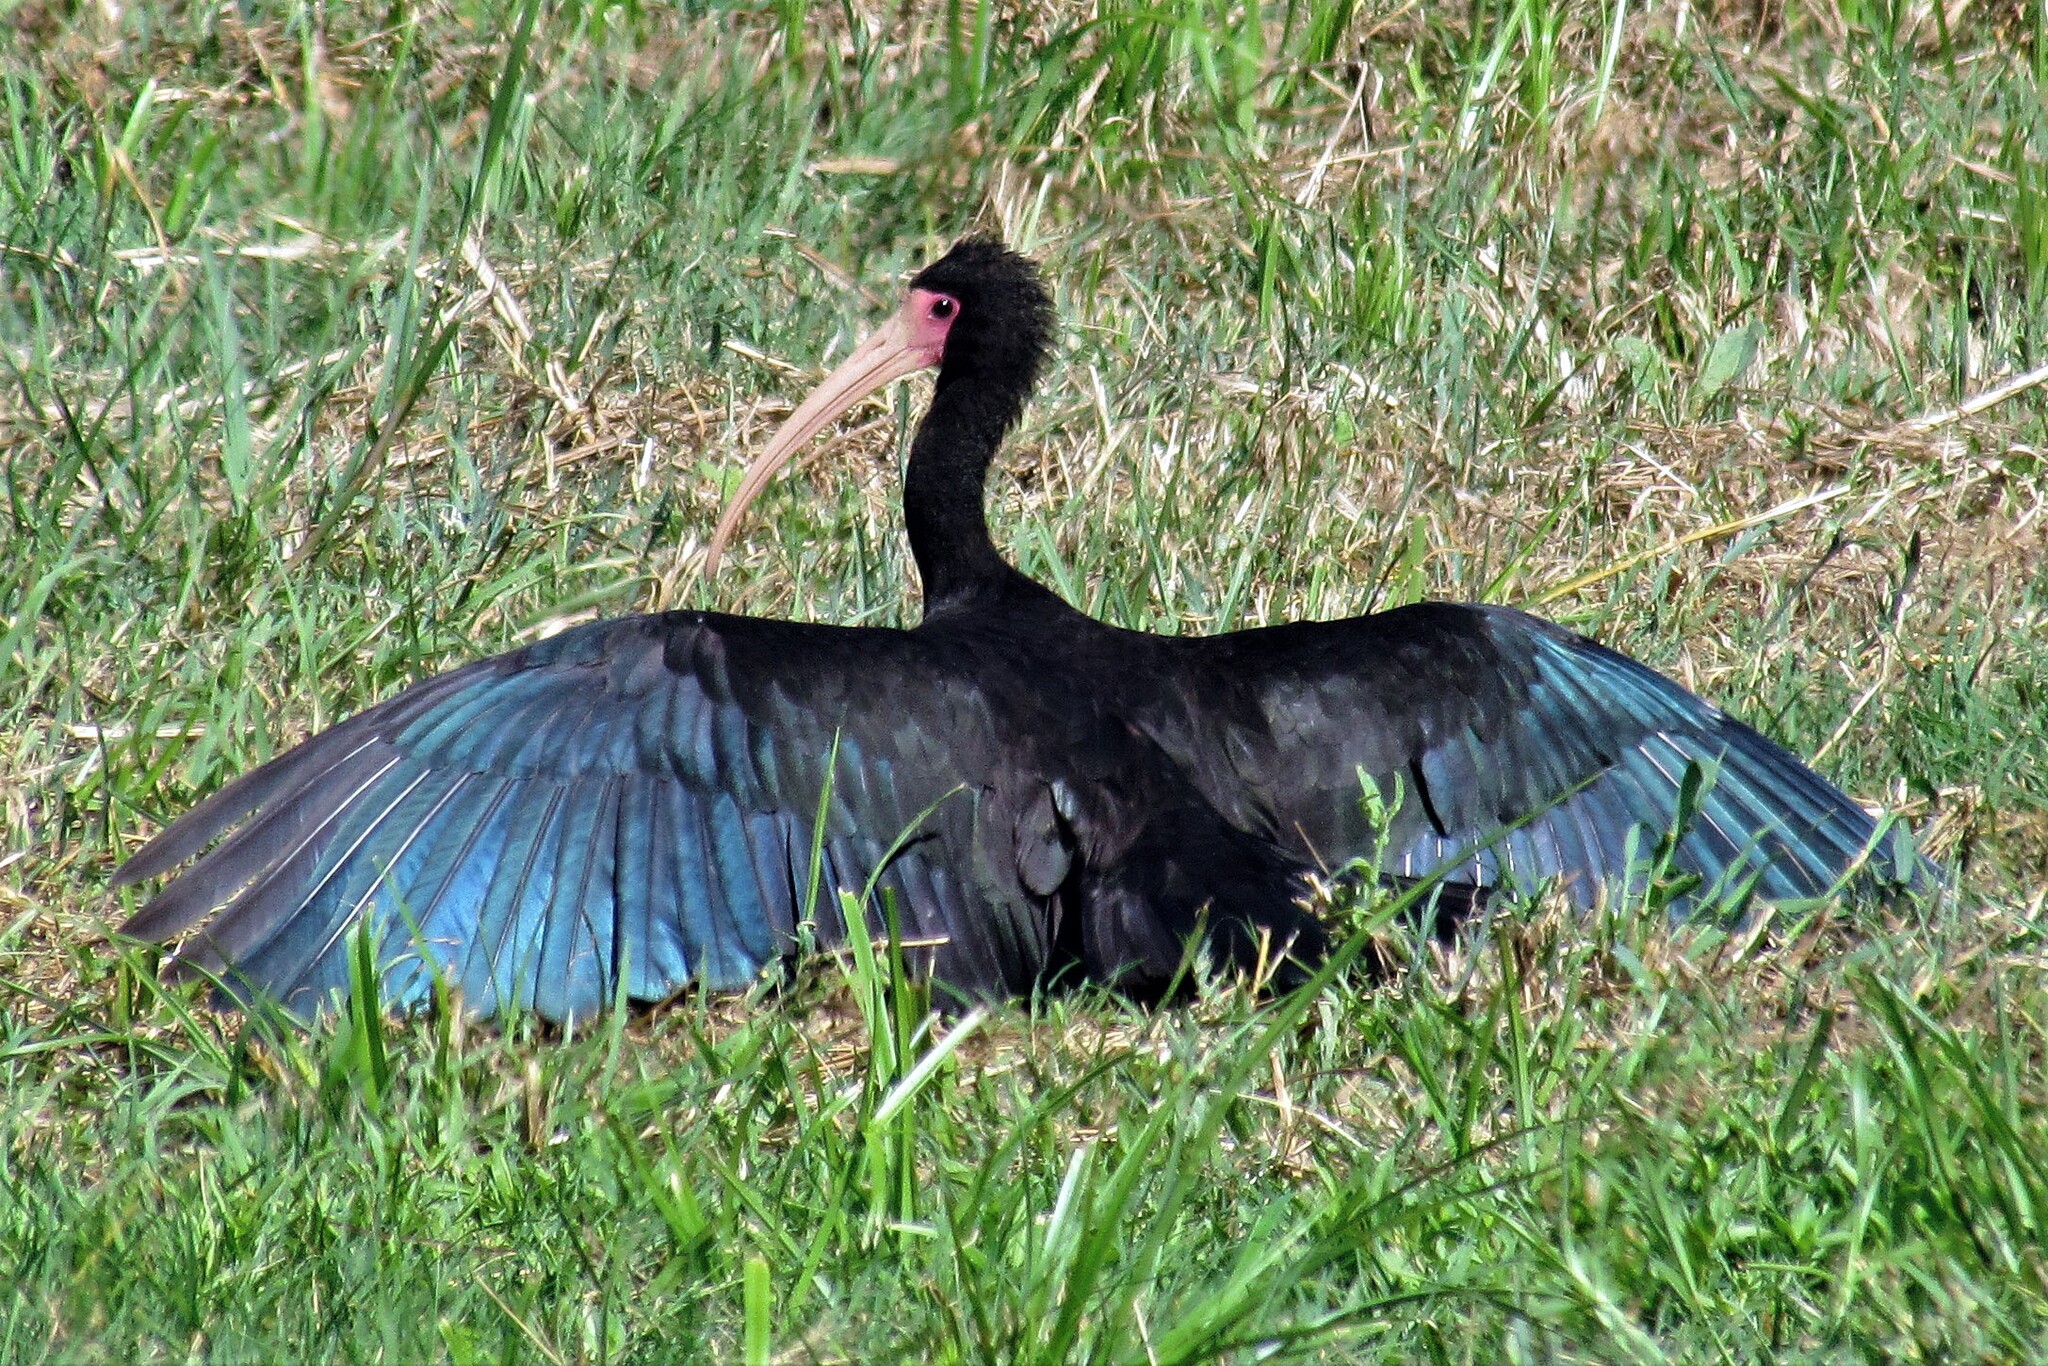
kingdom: Animalia
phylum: Chordata
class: Aves
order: Pelecaniformes
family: Threskiornithidae
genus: Phimosus
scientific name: Phimosus infuscatus
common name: Bare-faced ibis
